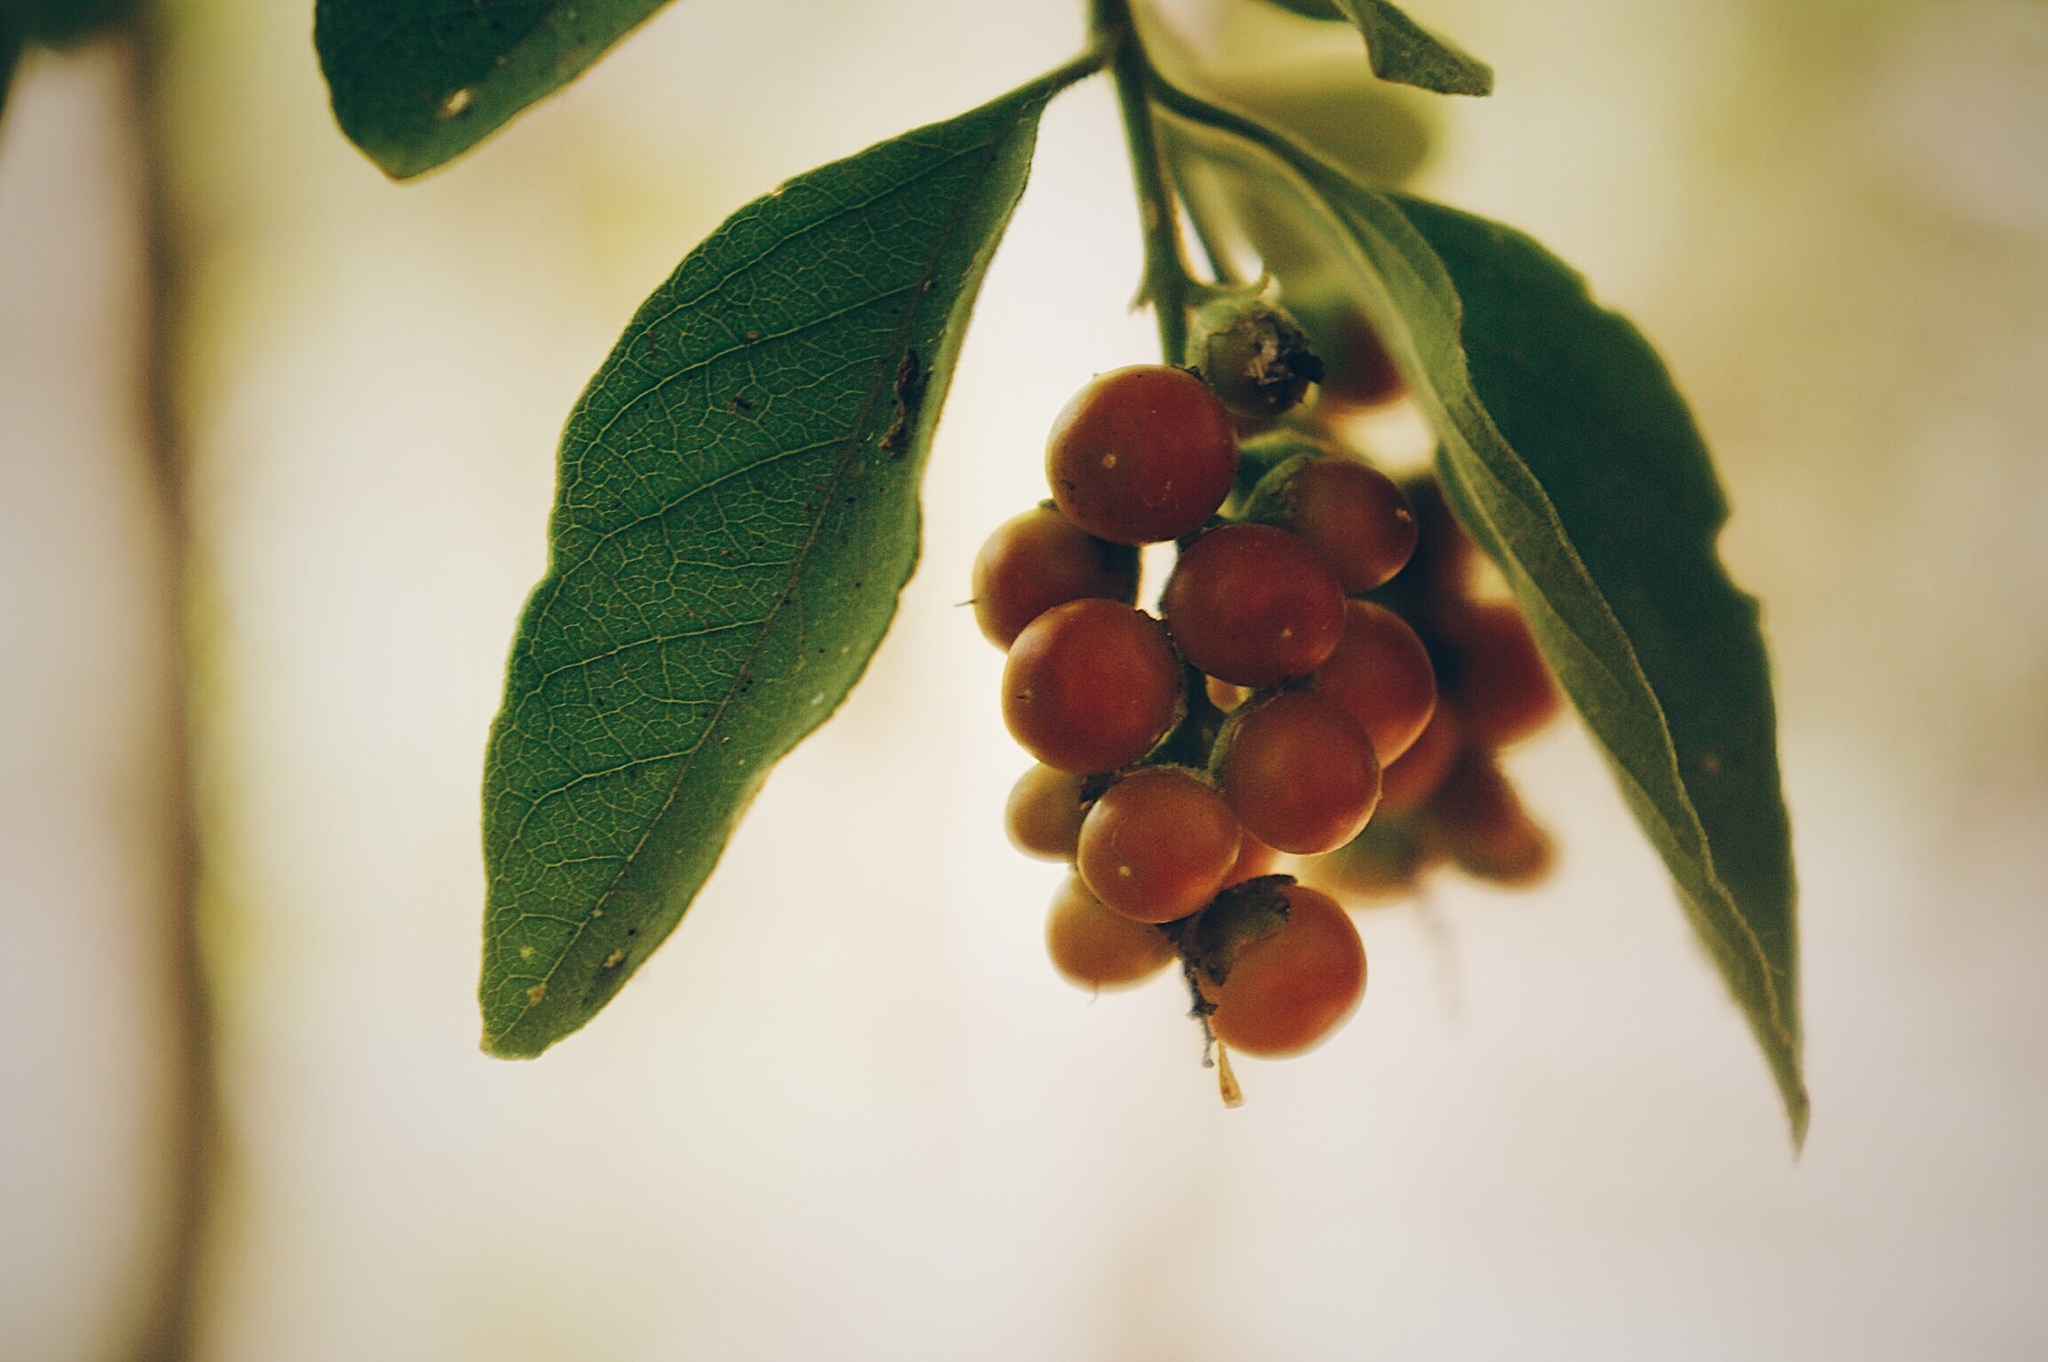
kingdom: Plantae
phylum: Tracheophyta
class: Magnoliopsida
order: Lamiales
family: Verbenaceae
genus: Citharexylum
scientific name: Citharexylum berlandieri
